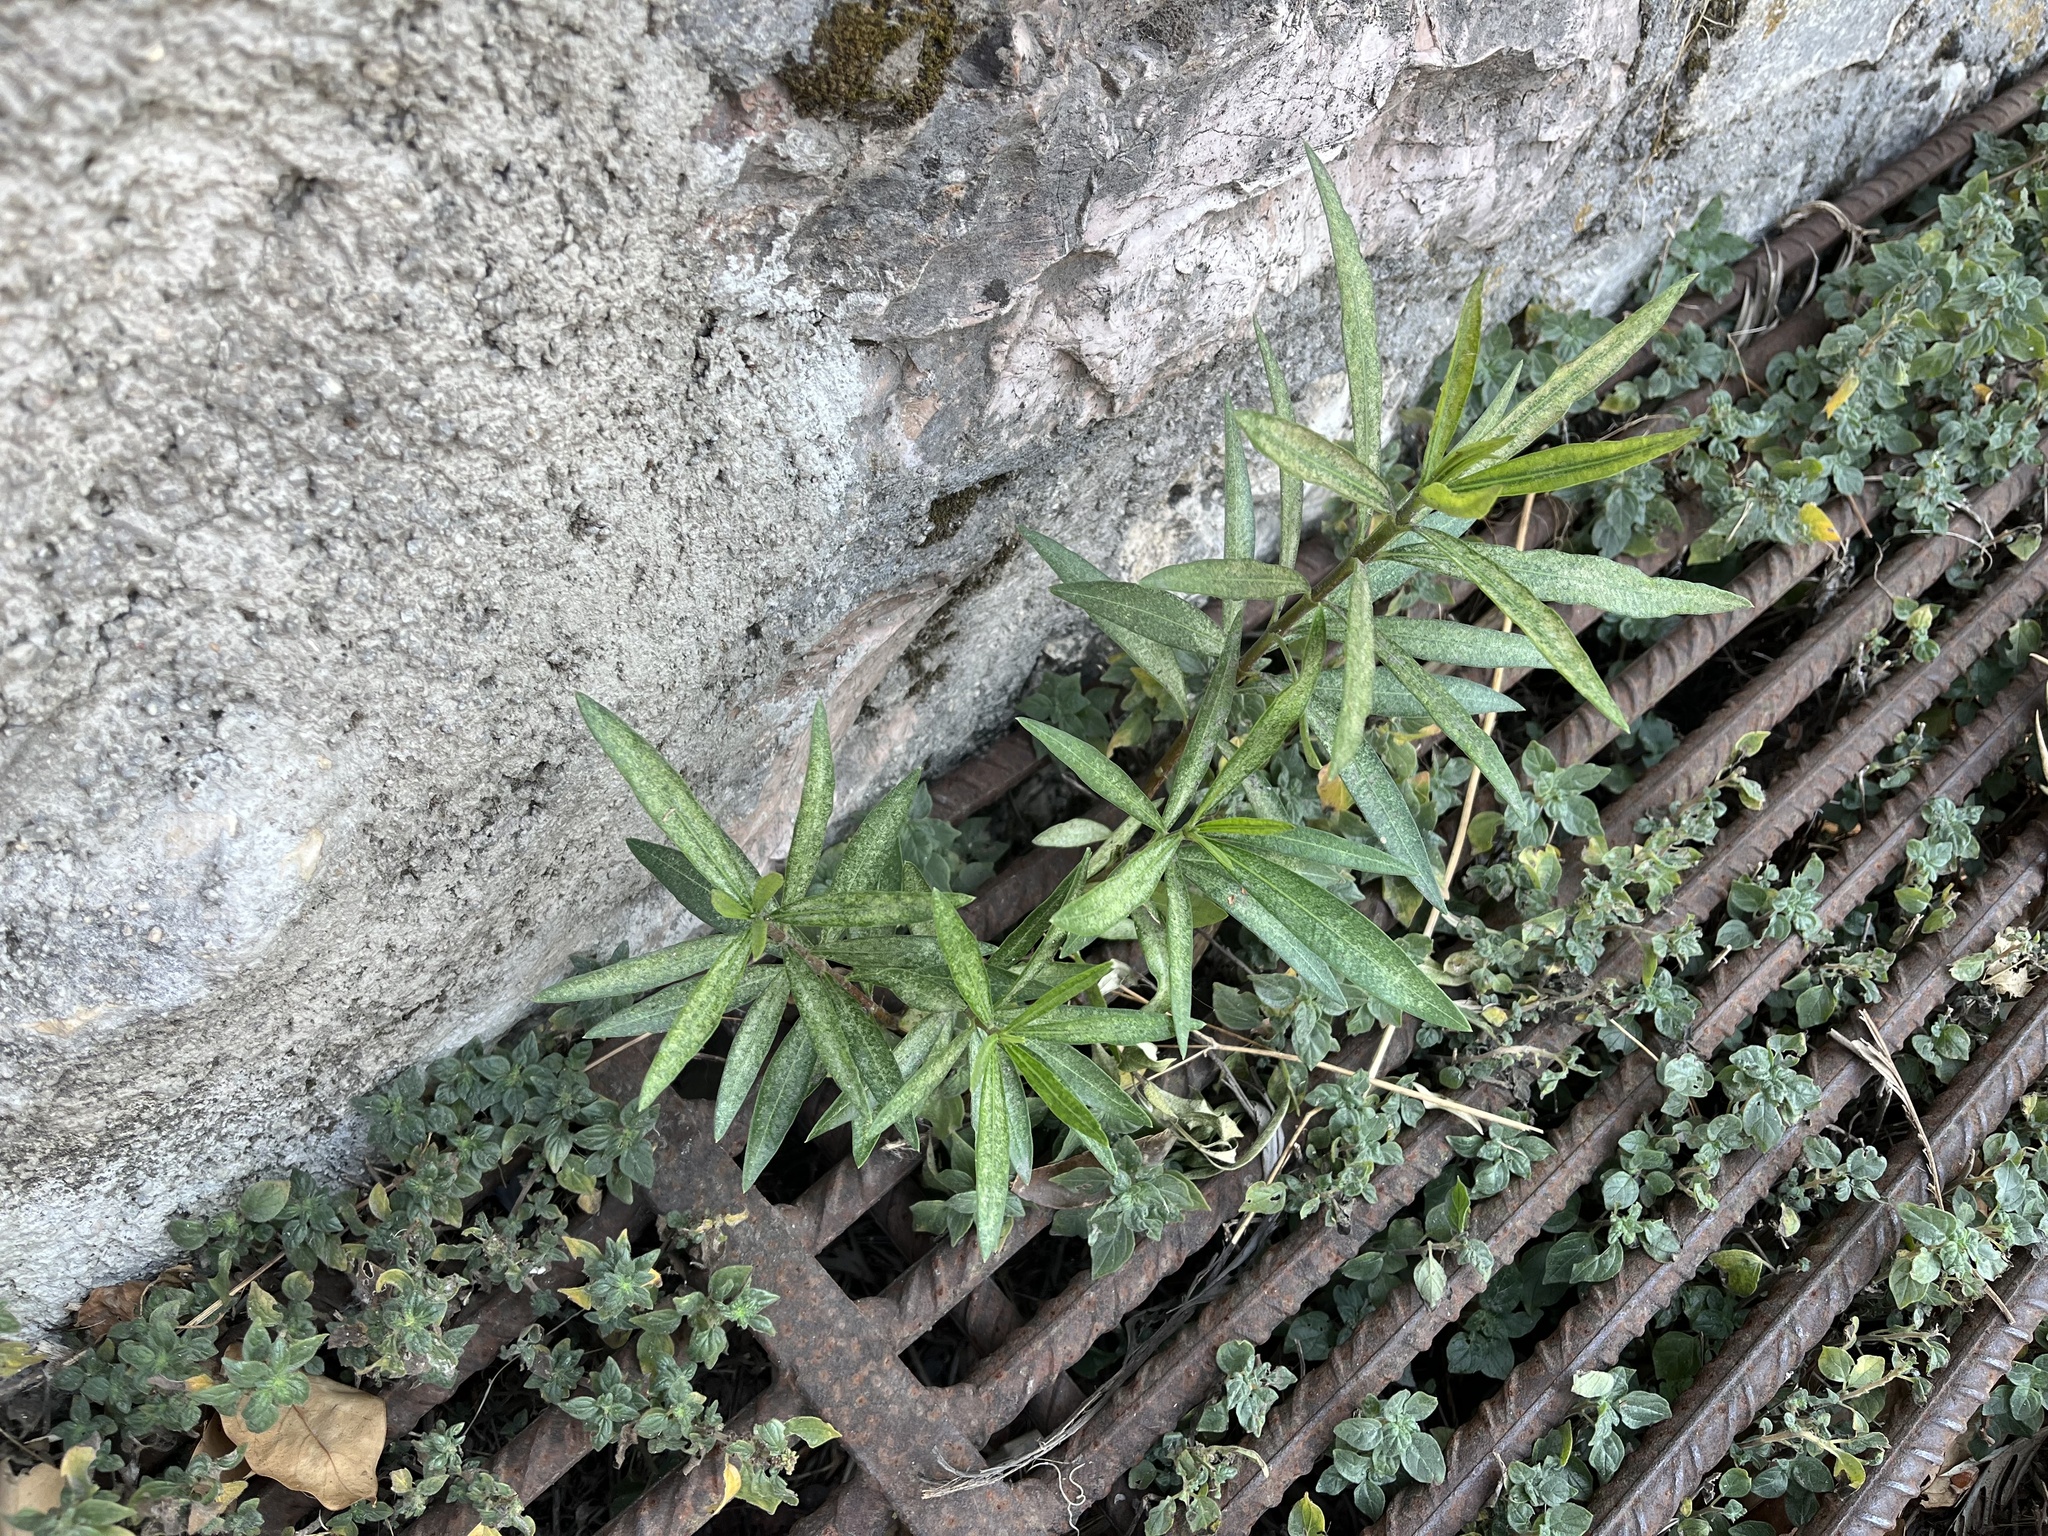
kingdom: Plantae
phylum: Tracheophyta
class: Magnoliopsida
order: Gentianales
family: Apocynaceae
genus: Nerium
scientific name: Nerium oleander
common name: Oleander
